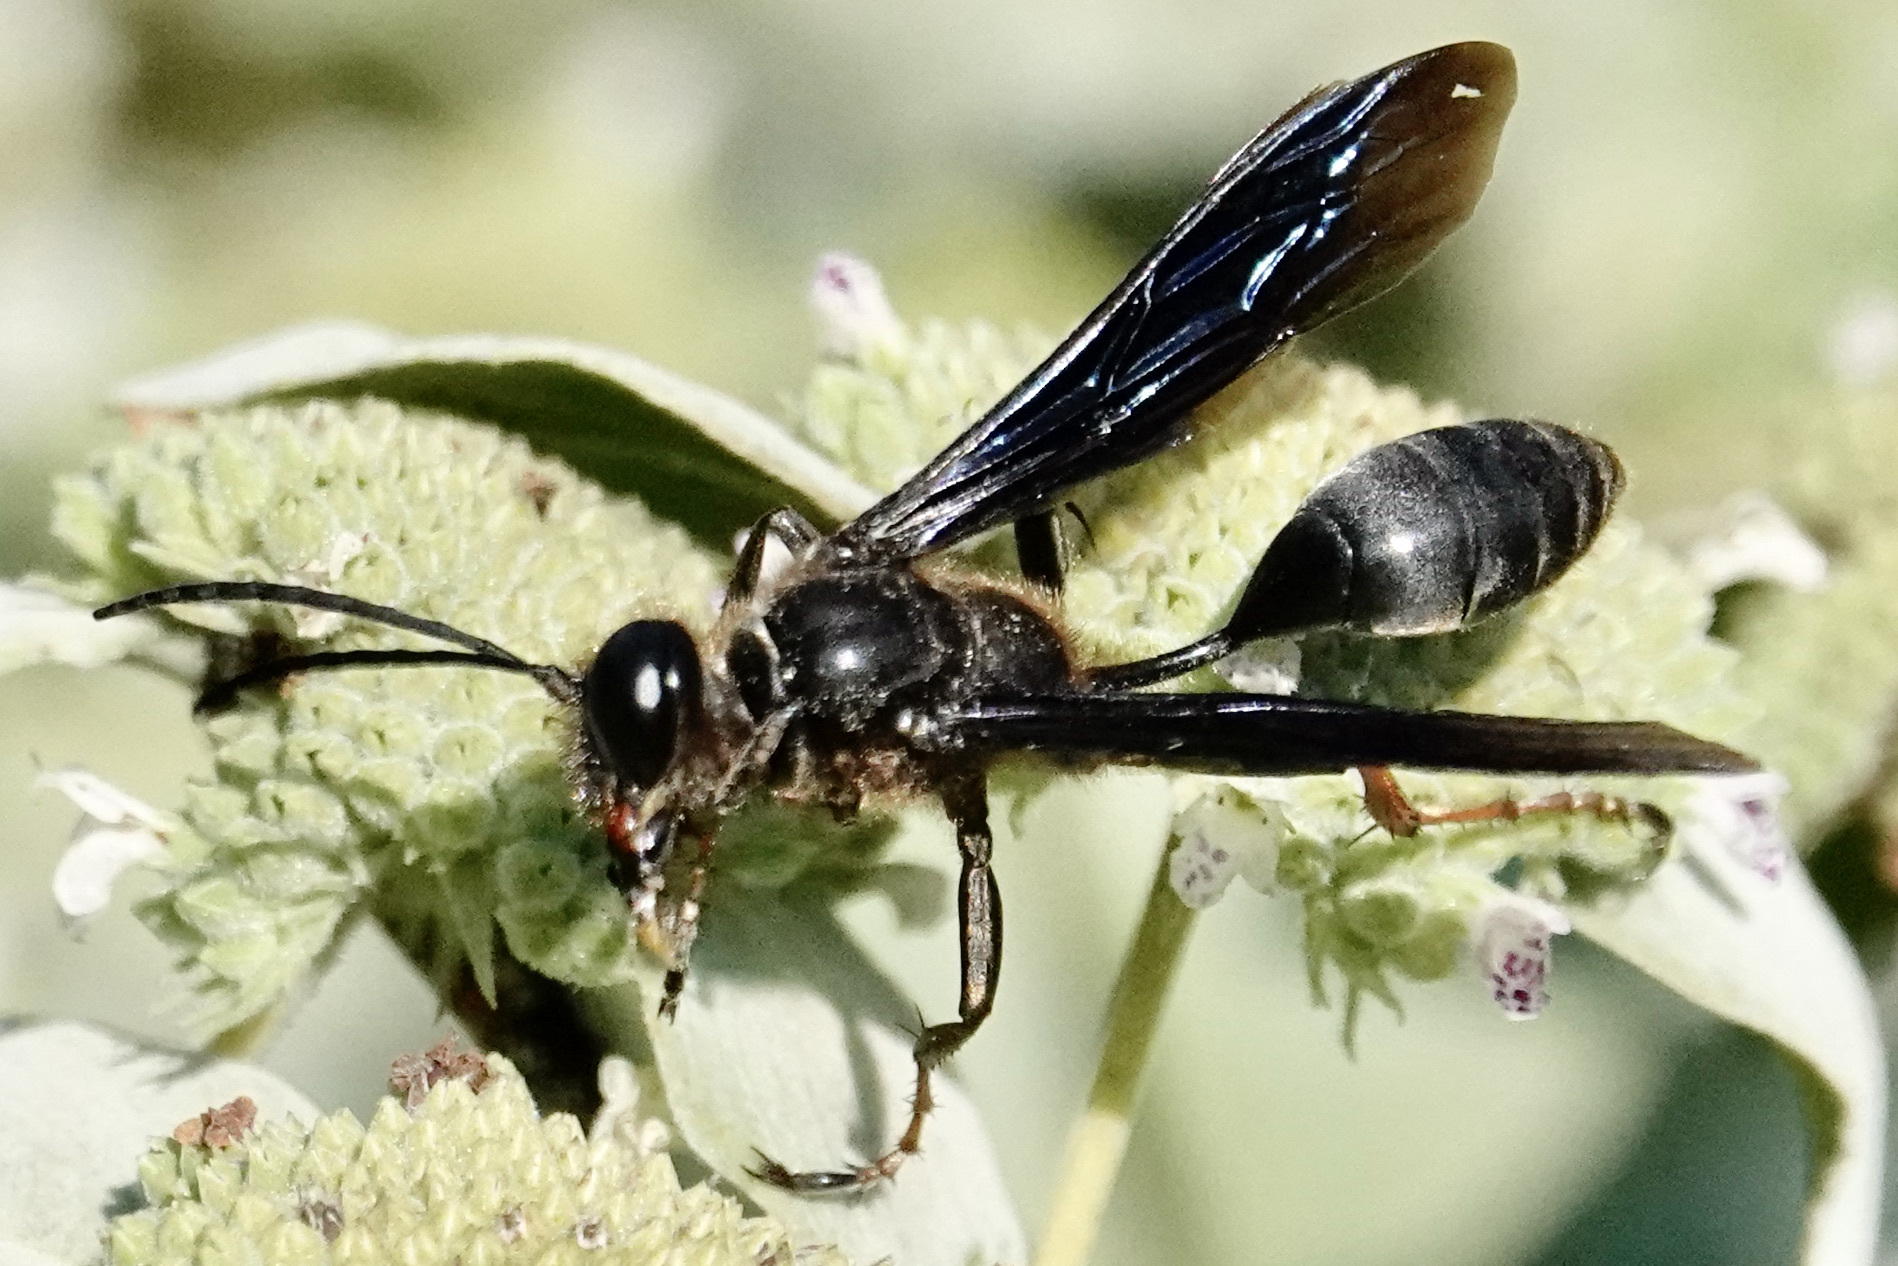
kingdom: Animalia
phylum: Arthropoda
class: Insecta
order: Hymenoptera
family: Sphecidae
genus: Isodontia
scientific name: Isodontia auripes
